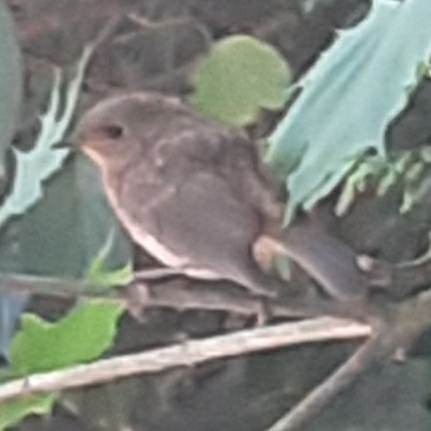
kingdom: Animalia
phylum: Chordata
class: Aves
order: Passeriformes
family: Muscicapidae
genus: Erithacus
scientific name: Erithacus rubecula
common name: European robin
